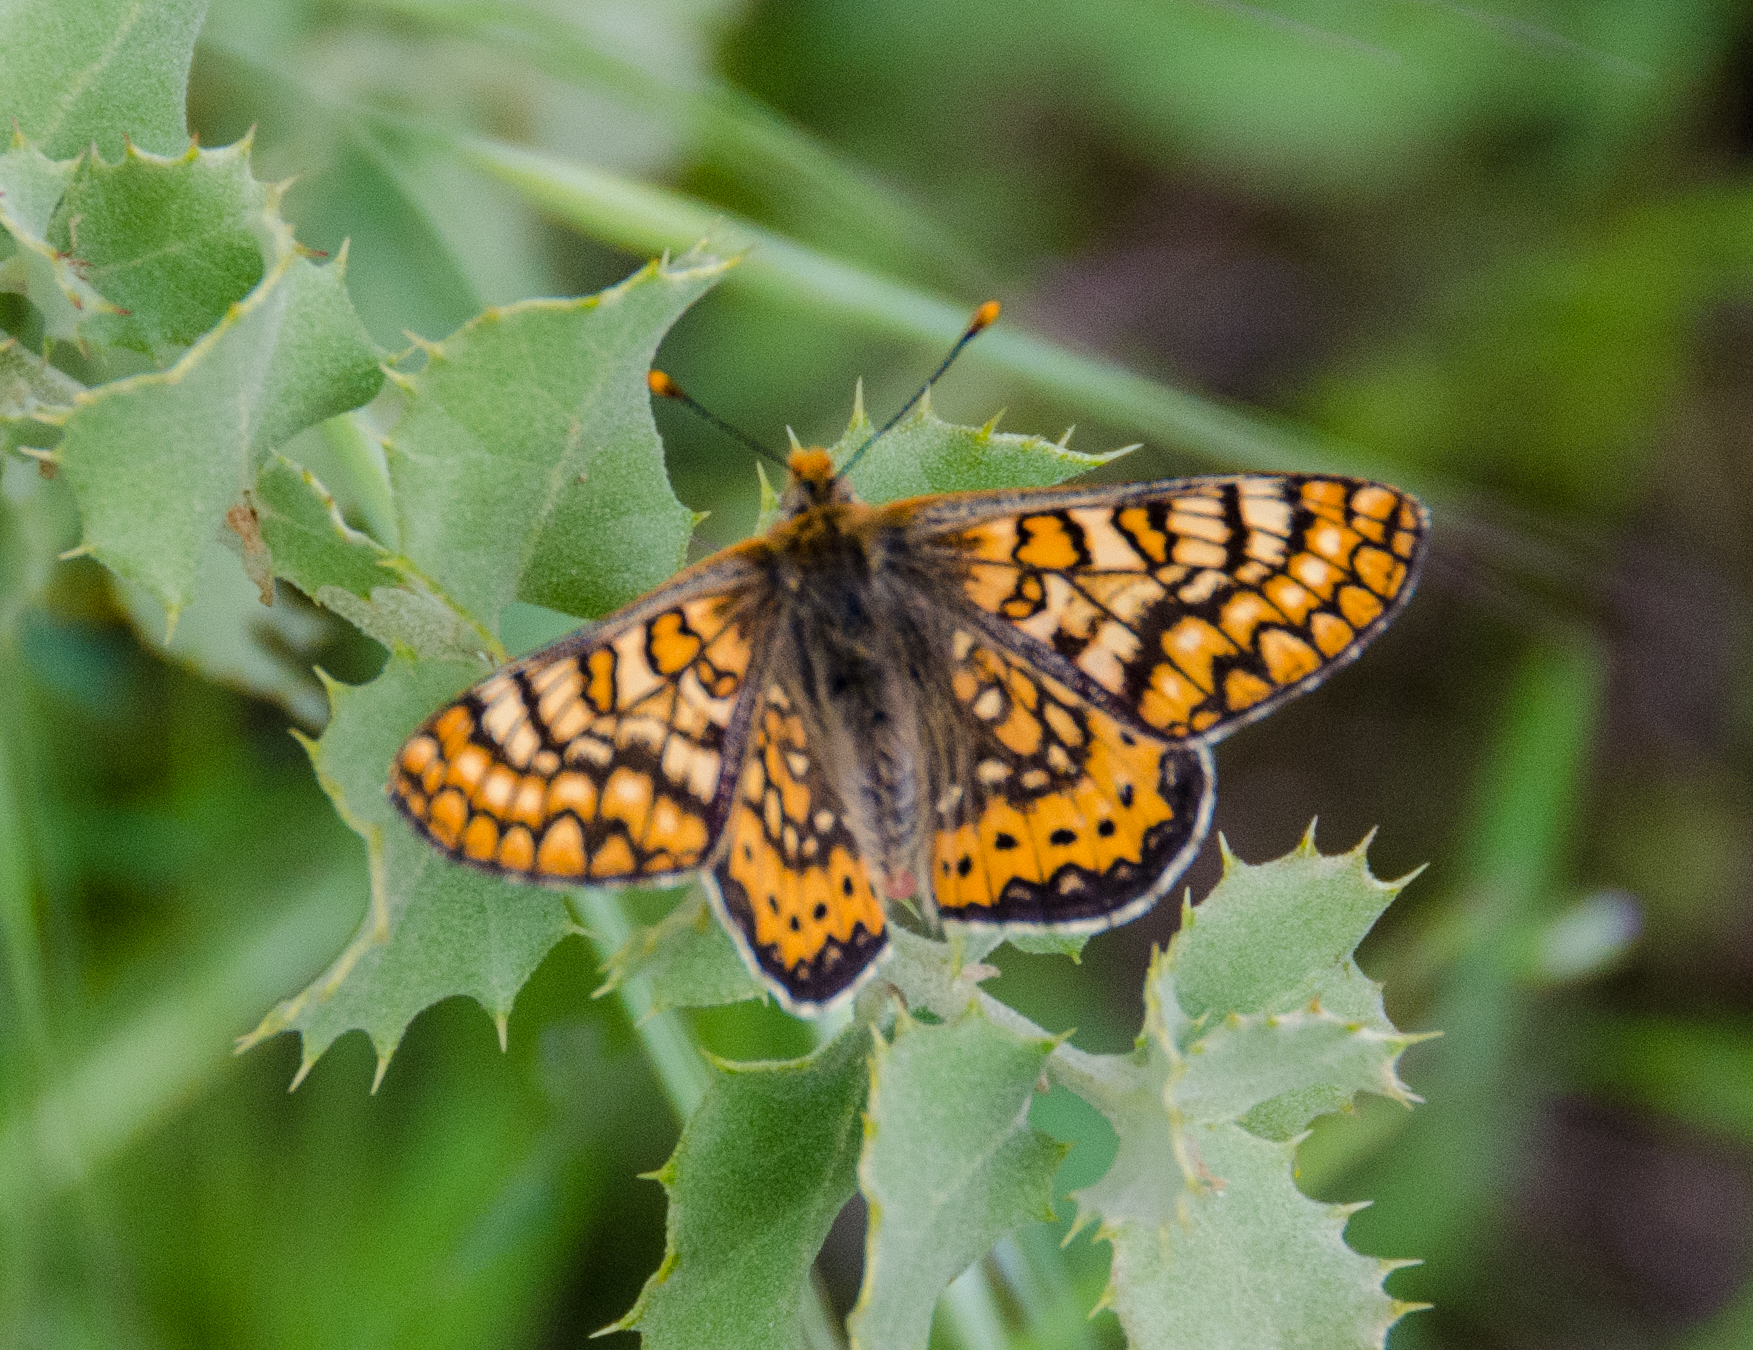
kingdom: Animalia
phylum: Arthropoda
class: Insecta
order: Lepidoptera
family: Nymphalidae
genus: Euphydryas
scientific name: Euphydryas aurinia
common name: Marsh fritillary
